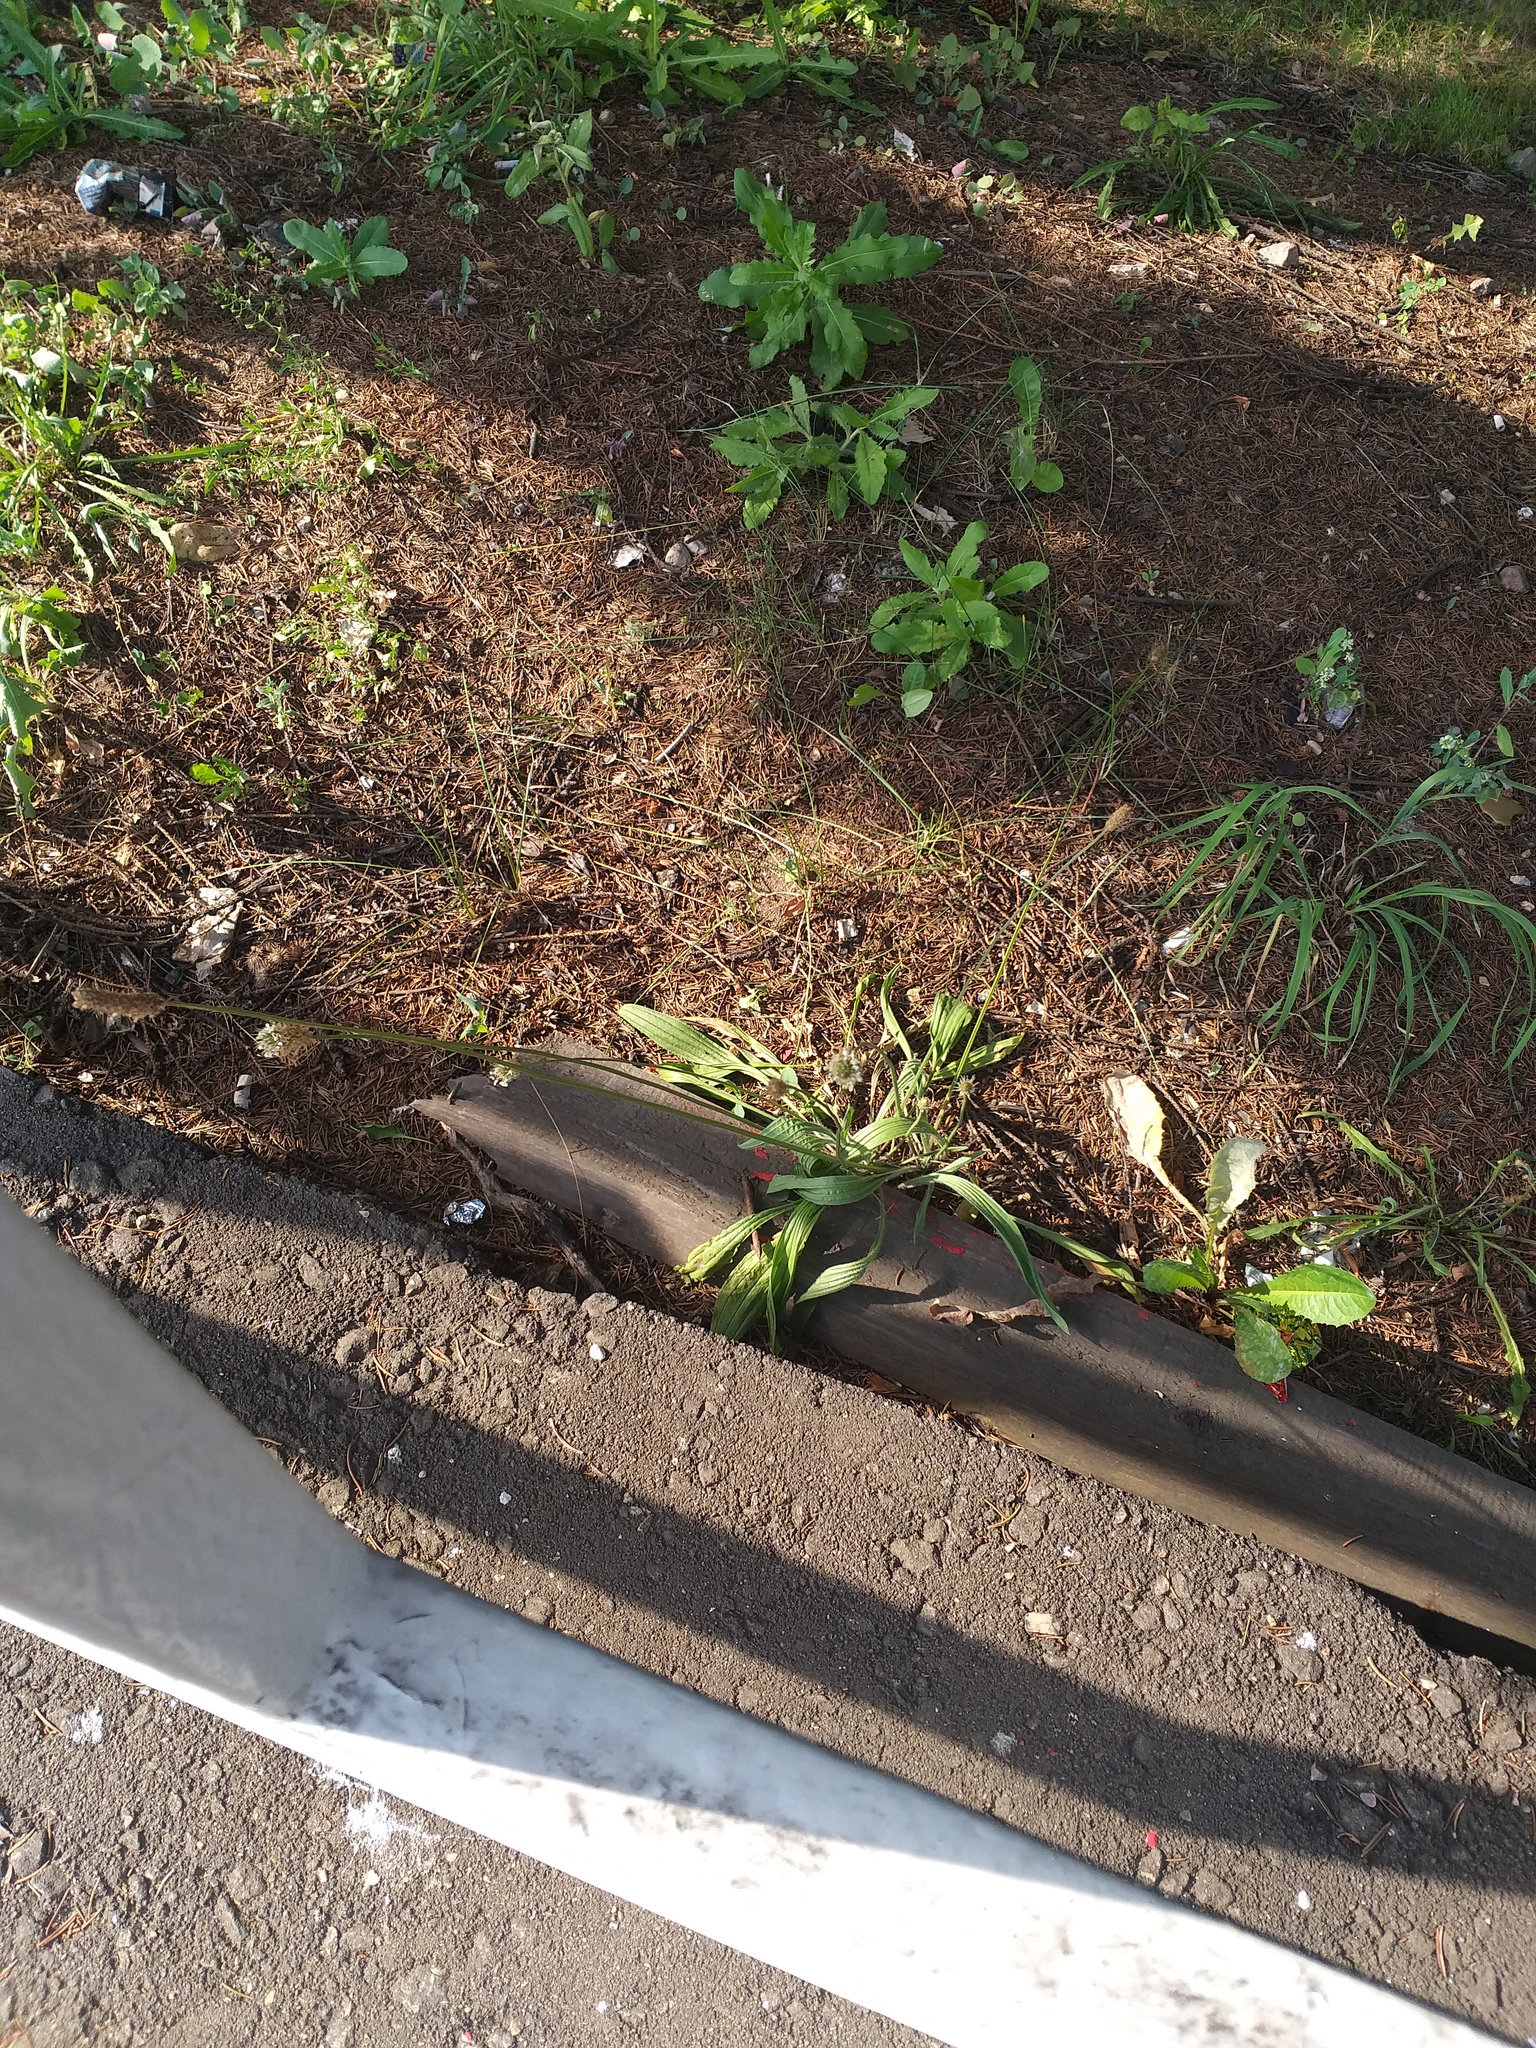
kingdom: Plantae
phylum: Tracheophyta
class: Magnoliopsida
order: Lamiales
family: Plantaginaceae
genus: Plantago
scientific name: Plantago lanceolata
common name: Ribwort plantain
